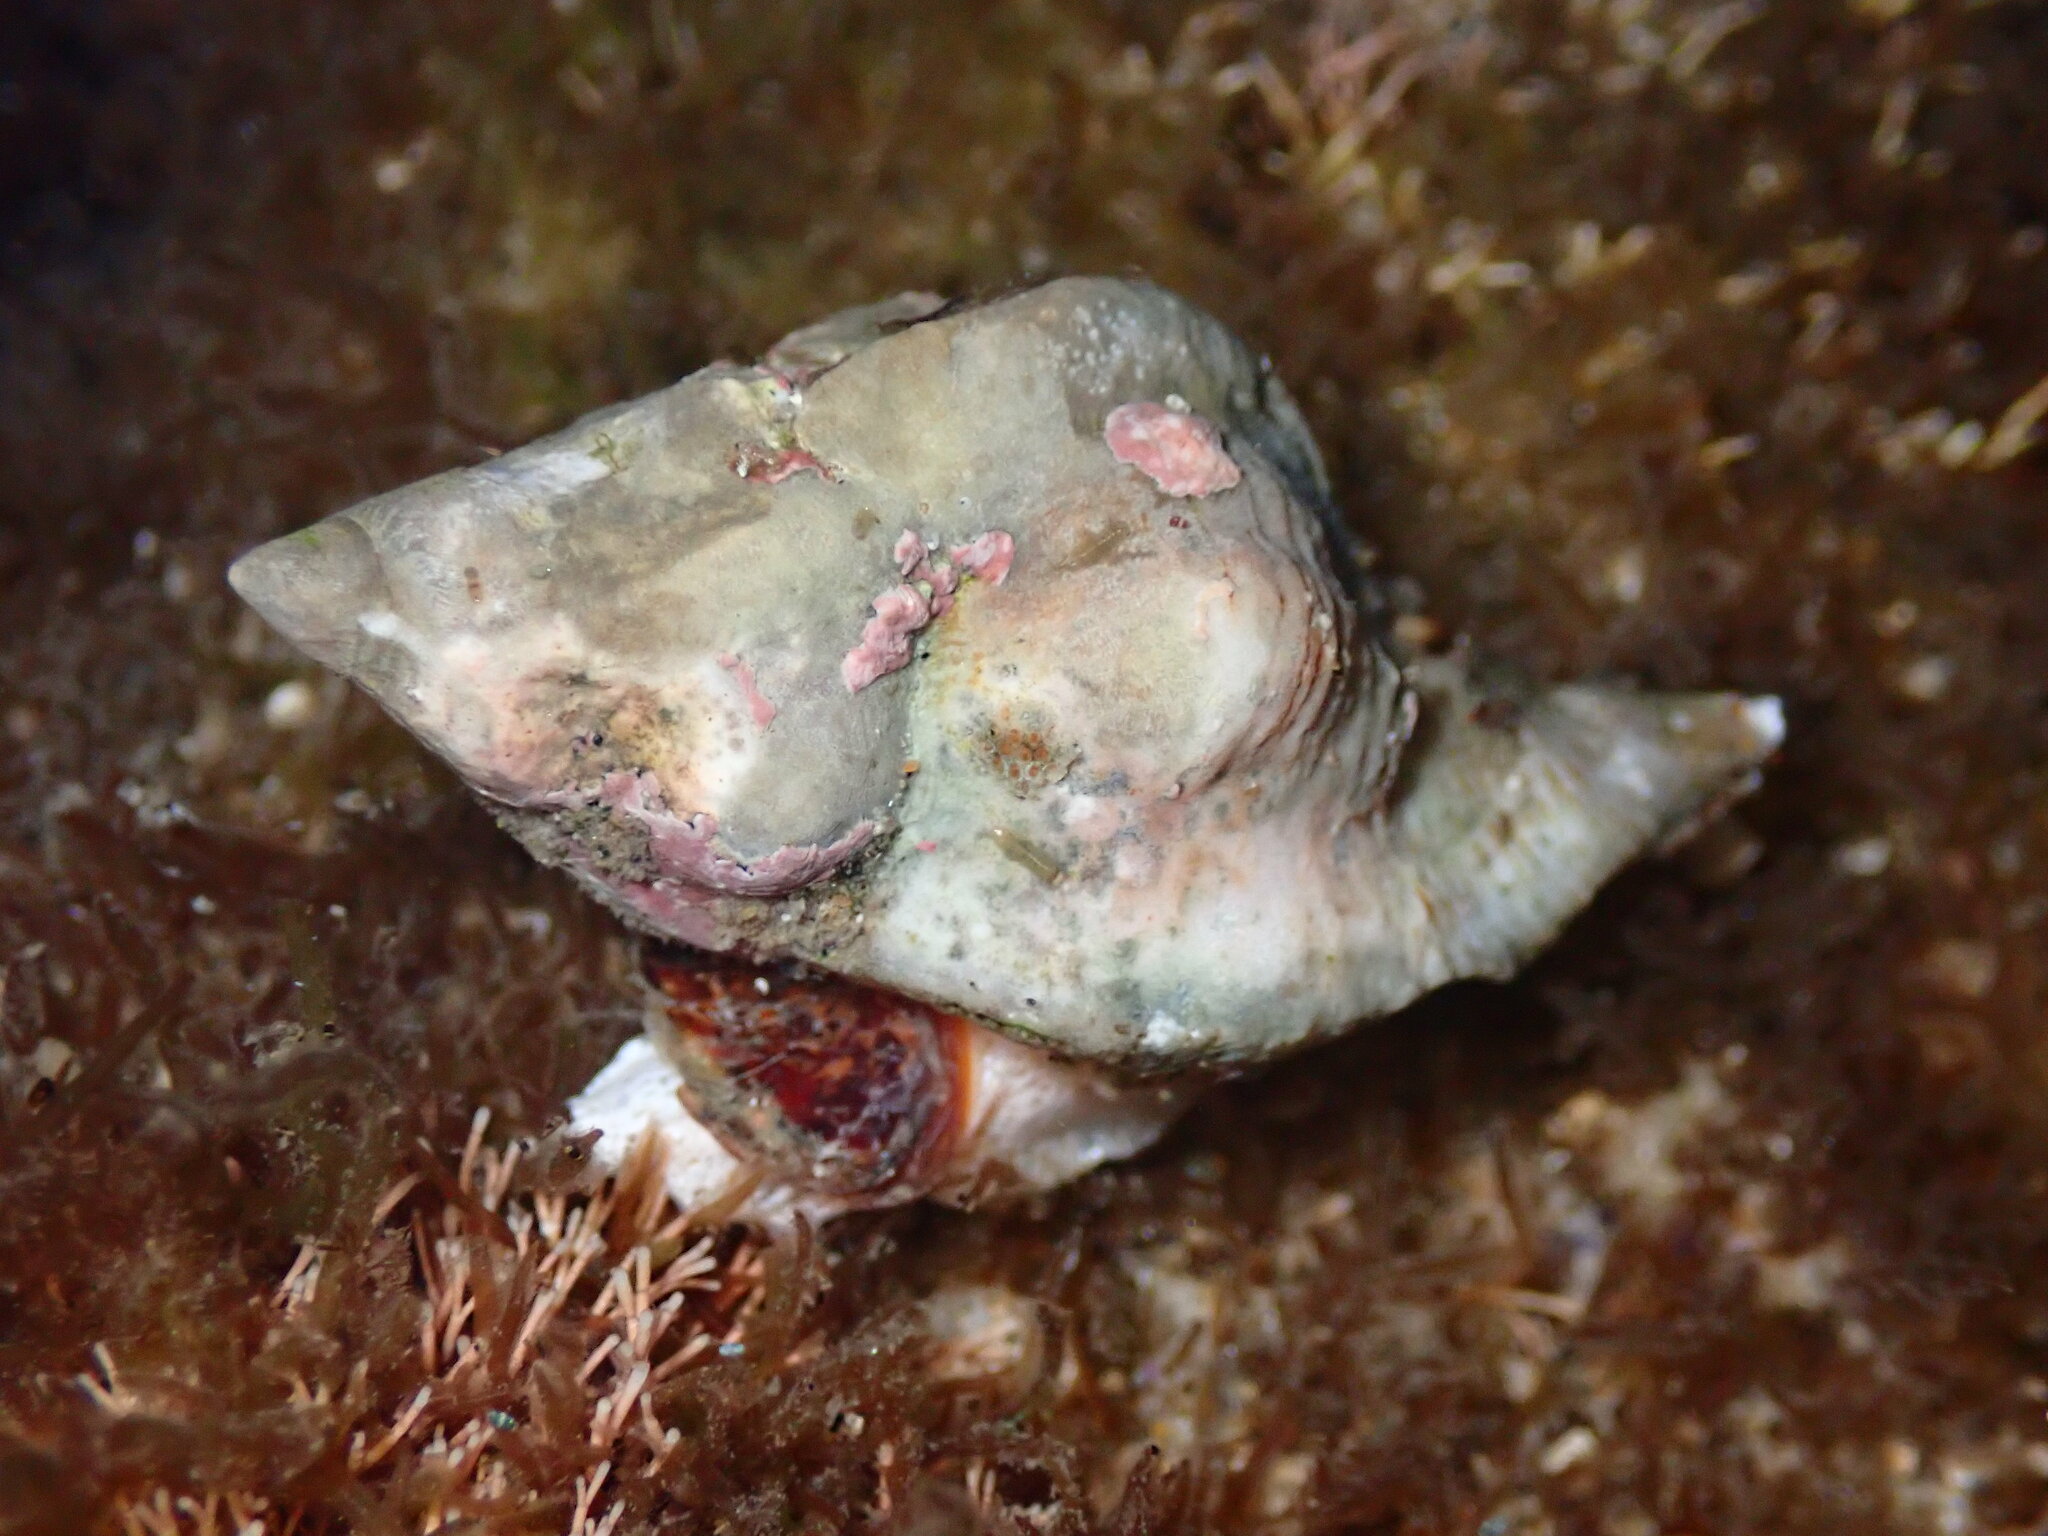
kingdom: Animalia
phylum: Mollusca
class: Gastropoda
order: Neogastropoda
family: Muricidae
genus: Ceratostoma
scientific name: Ceratostoma nuttalli
